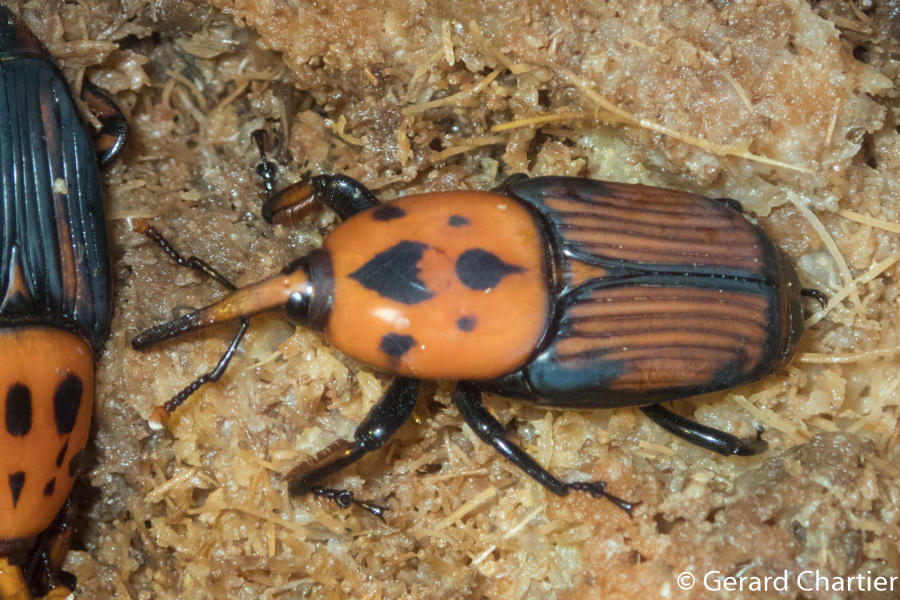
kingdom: Animalia
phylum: Arthropoda
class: Insecta
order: Coleoptera
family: Dryophthoridae
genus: Rhynchophorus
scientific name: Rhynchophorus ferrugineus
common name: Red palm weevil
